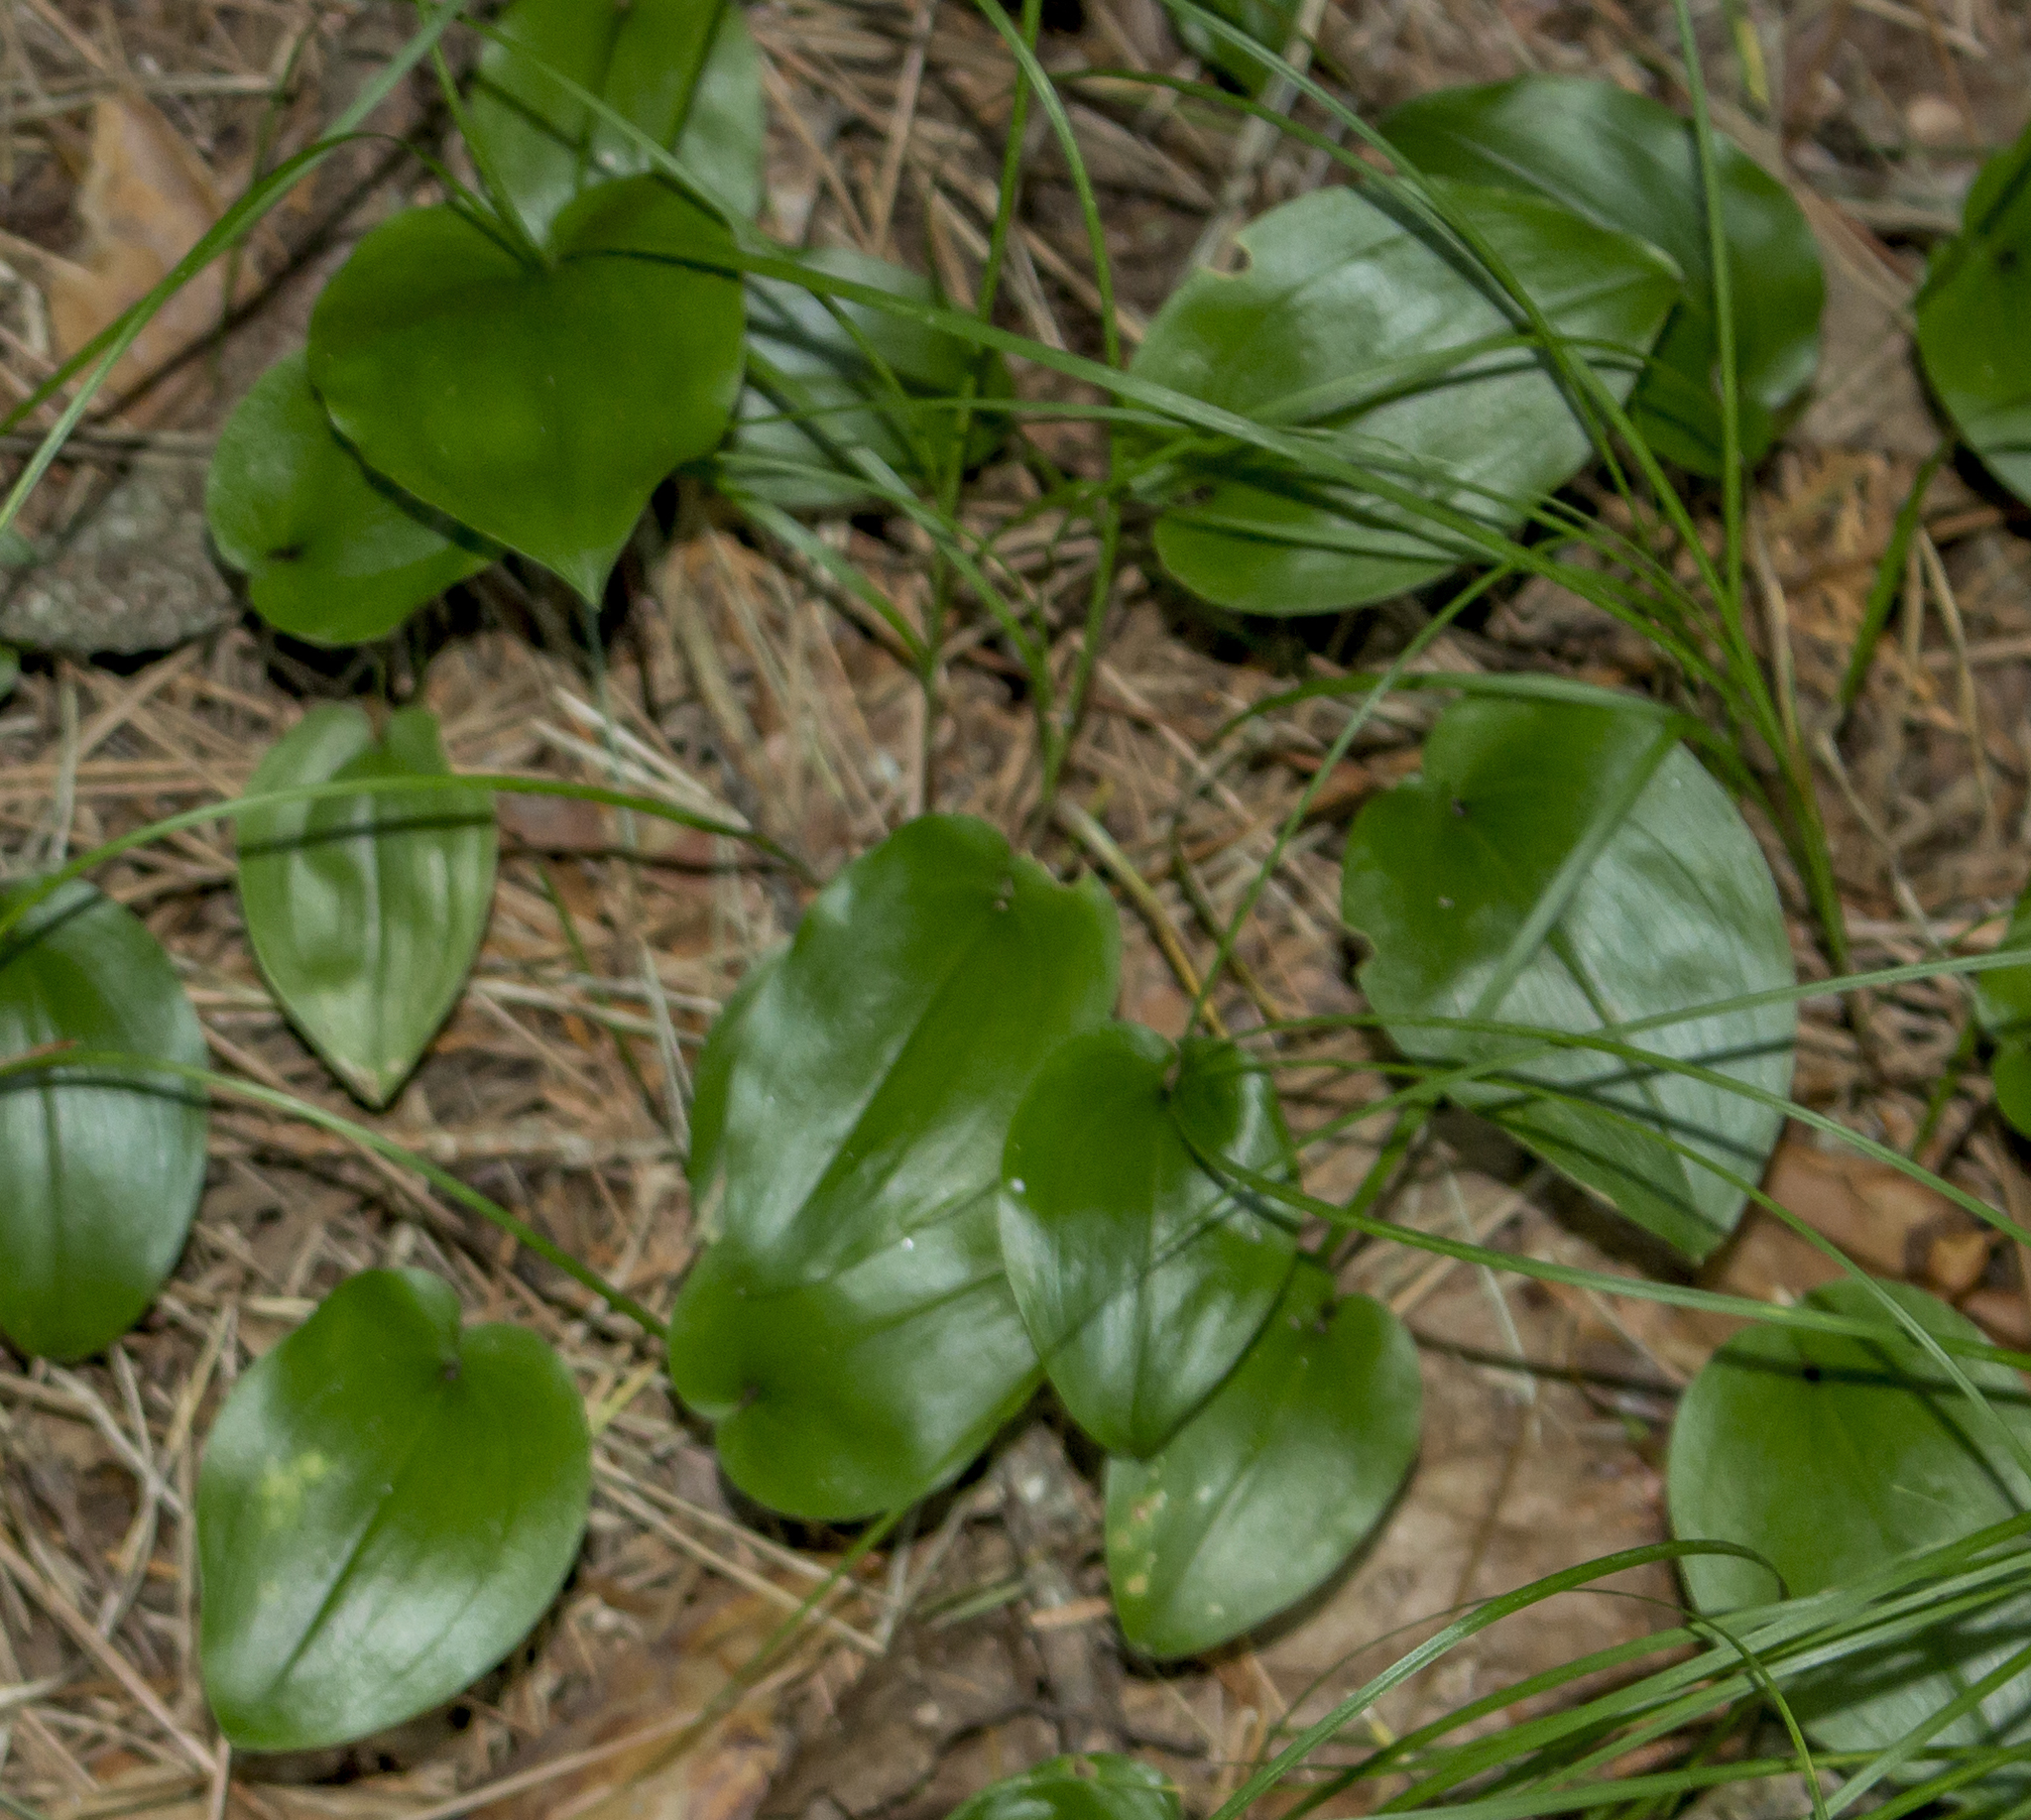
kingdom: Plantae
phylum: Tracheophyta
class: Liliopsida
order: Asparagales
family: Asparagaceae
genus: Maianthemum
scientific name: Maianthemum canadense
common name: False lily-of-the-valley
